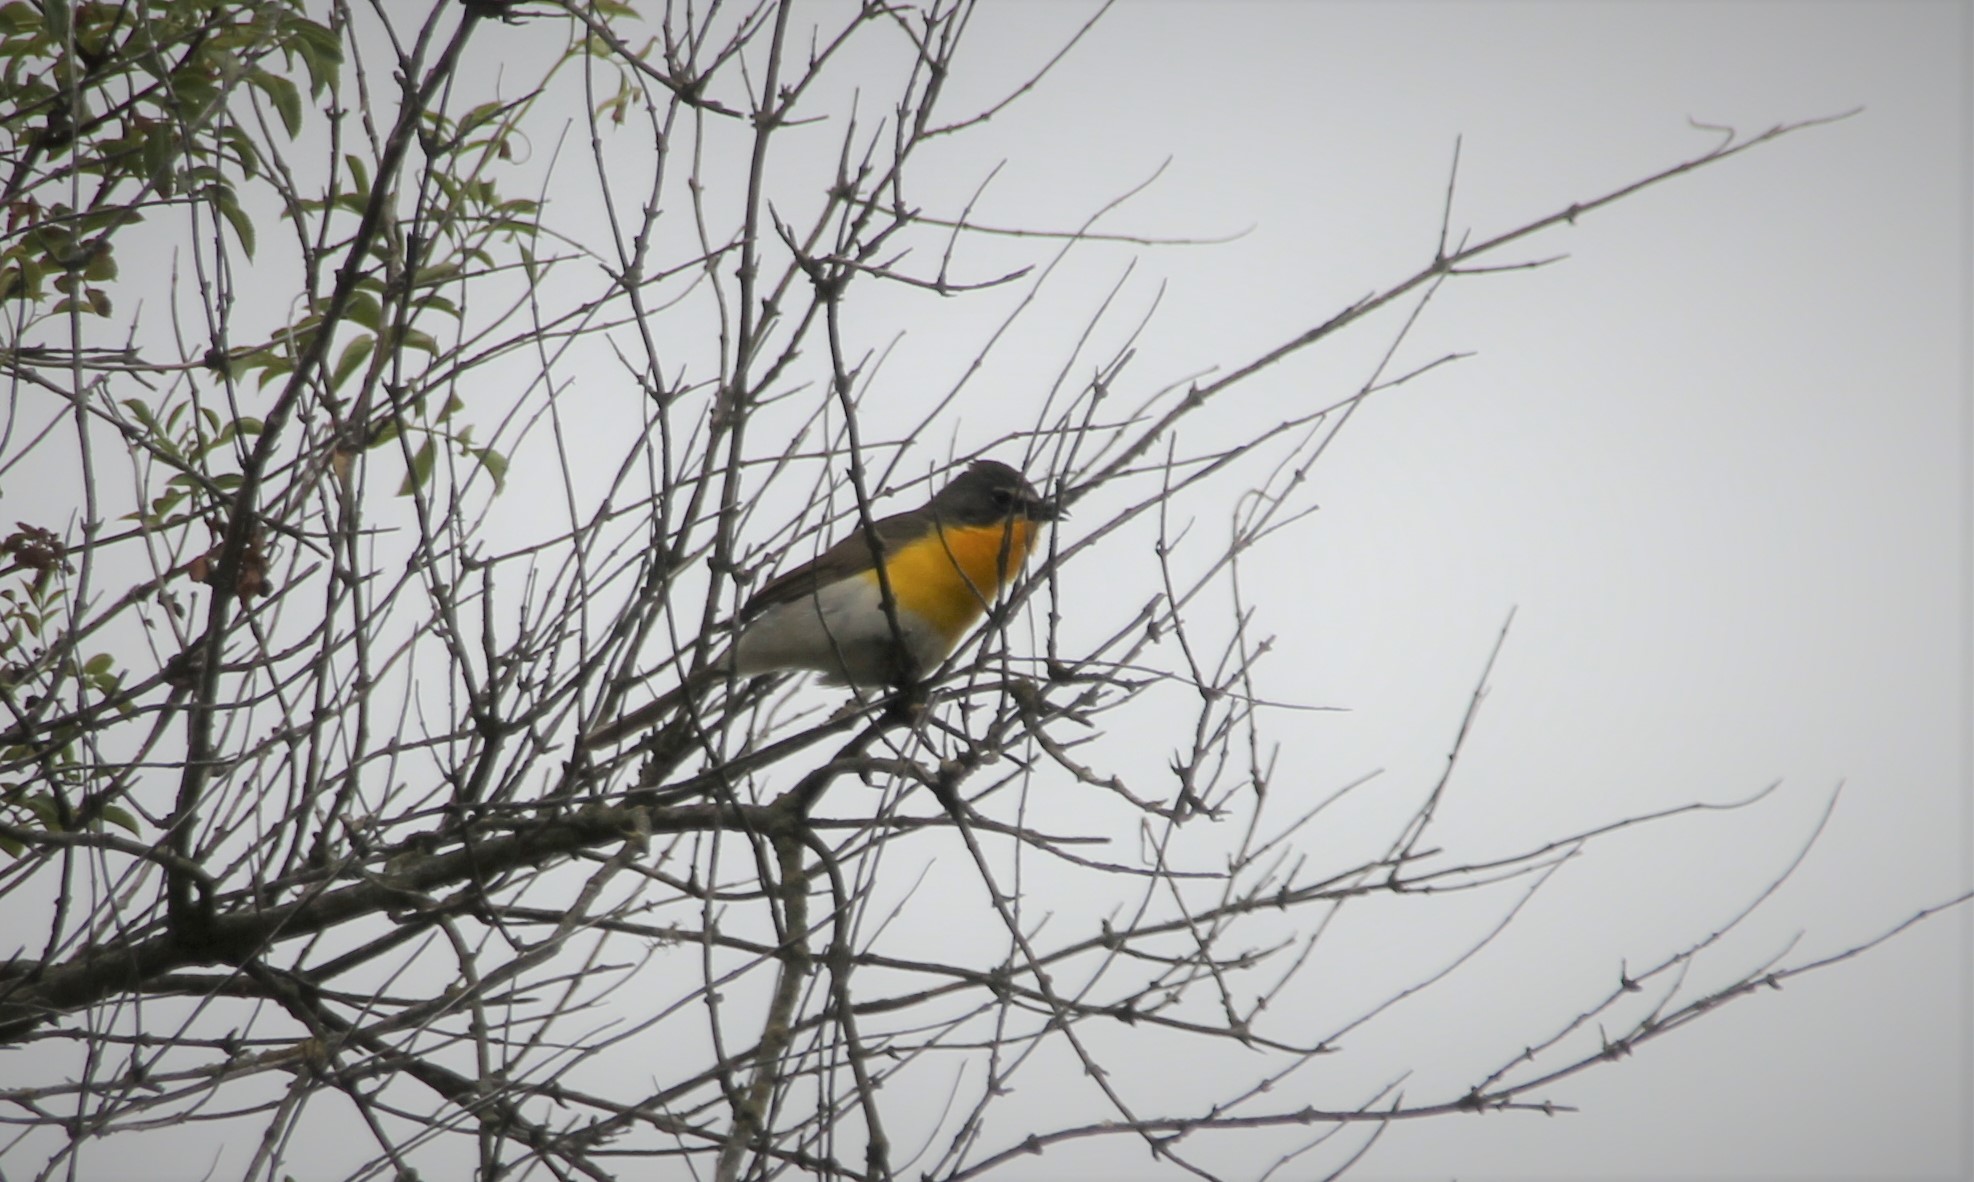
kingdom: Animalia
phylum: Chordata
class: Aves
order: Passeriformes
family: Parulidae
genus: Icteria
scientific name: Icteria virens
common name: Yellow-breasted chat
